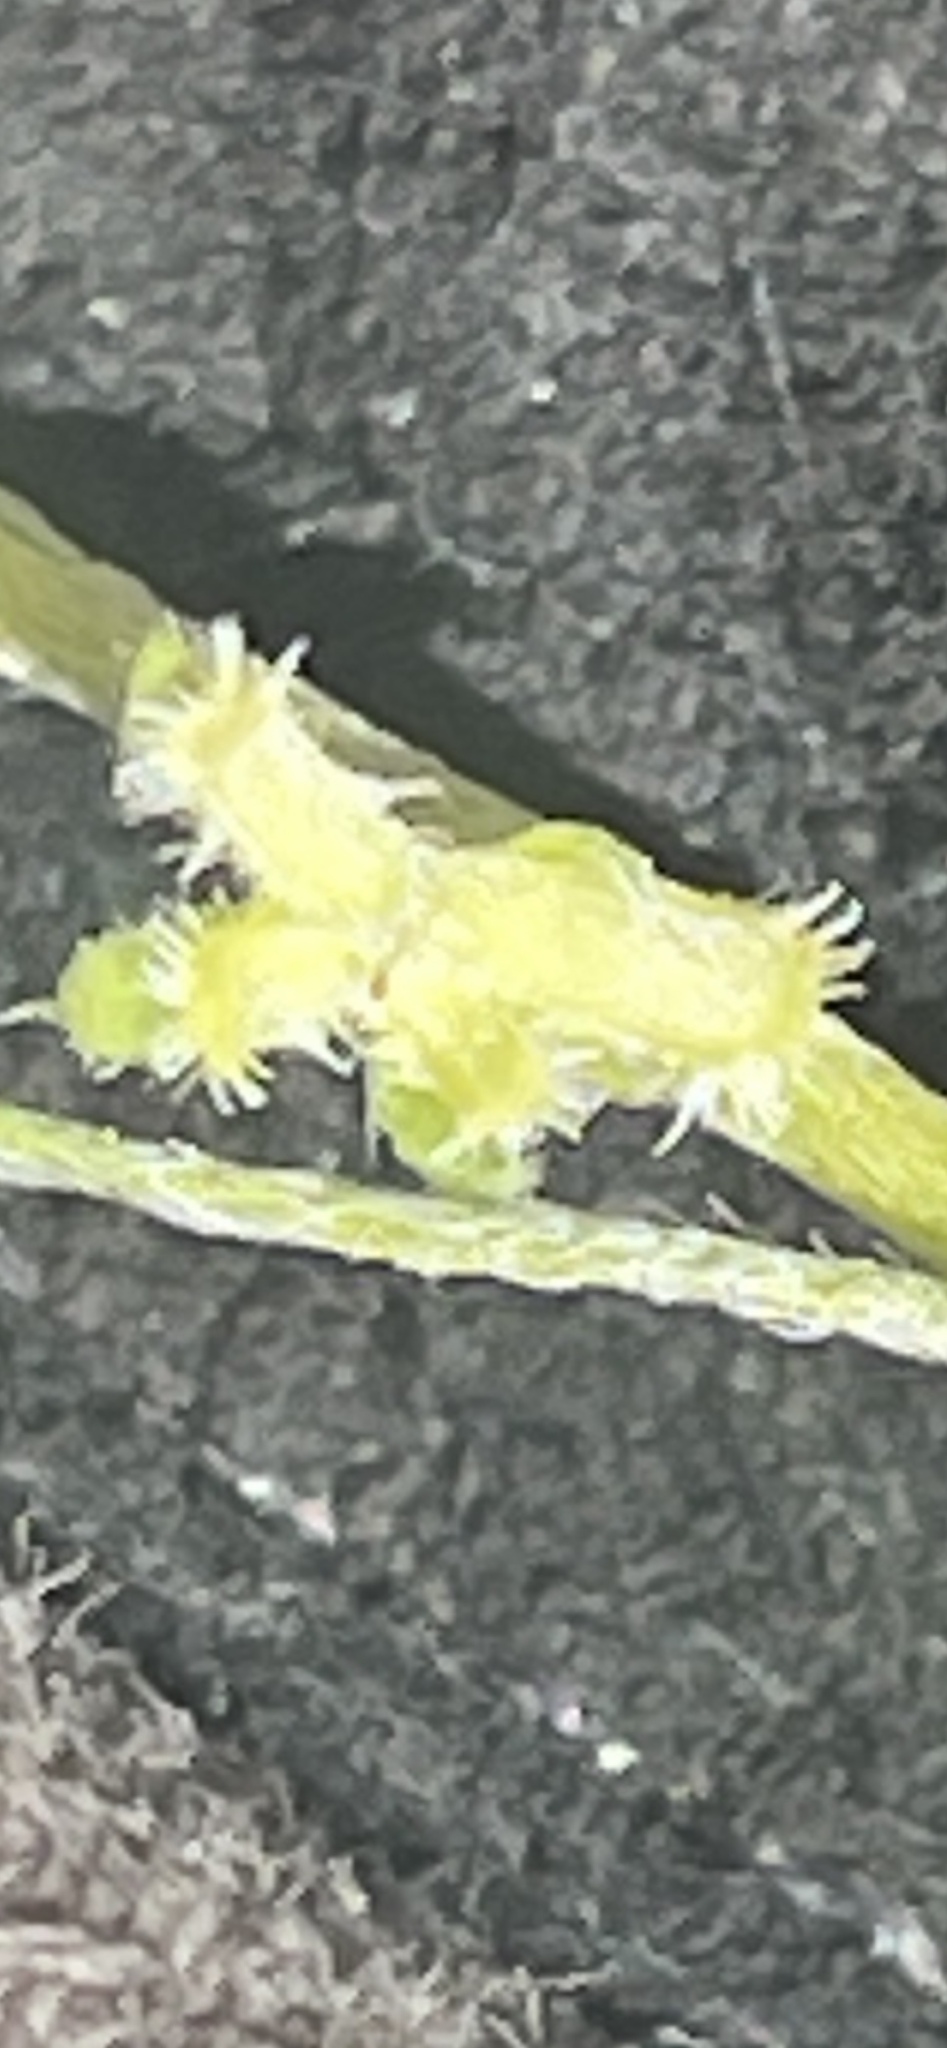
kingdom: Plantae
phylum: Tracheophyta
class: Magnoliopsida
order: Boraginales
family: Boraginaceae
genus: Pectocarya
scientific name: Pectocarya heterocarpa
